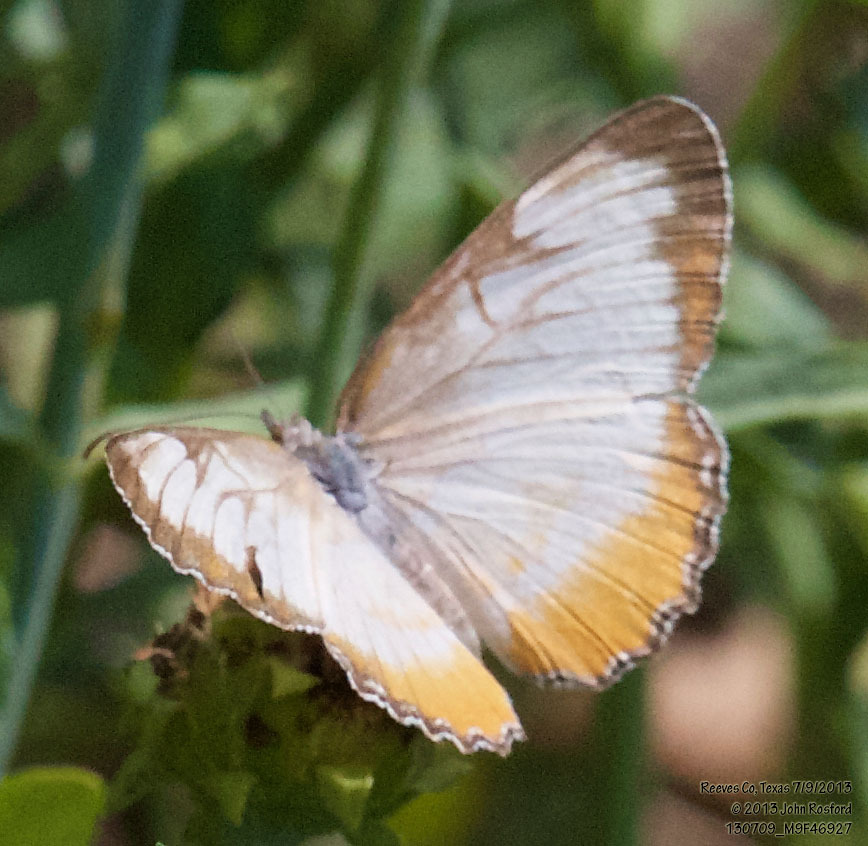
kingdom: Animalia
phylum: Arthropoda
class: Insecta
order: Lepidoptera
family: Nymphalidae
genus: Mestra
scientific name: Mestra amymone
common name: Common mestra
